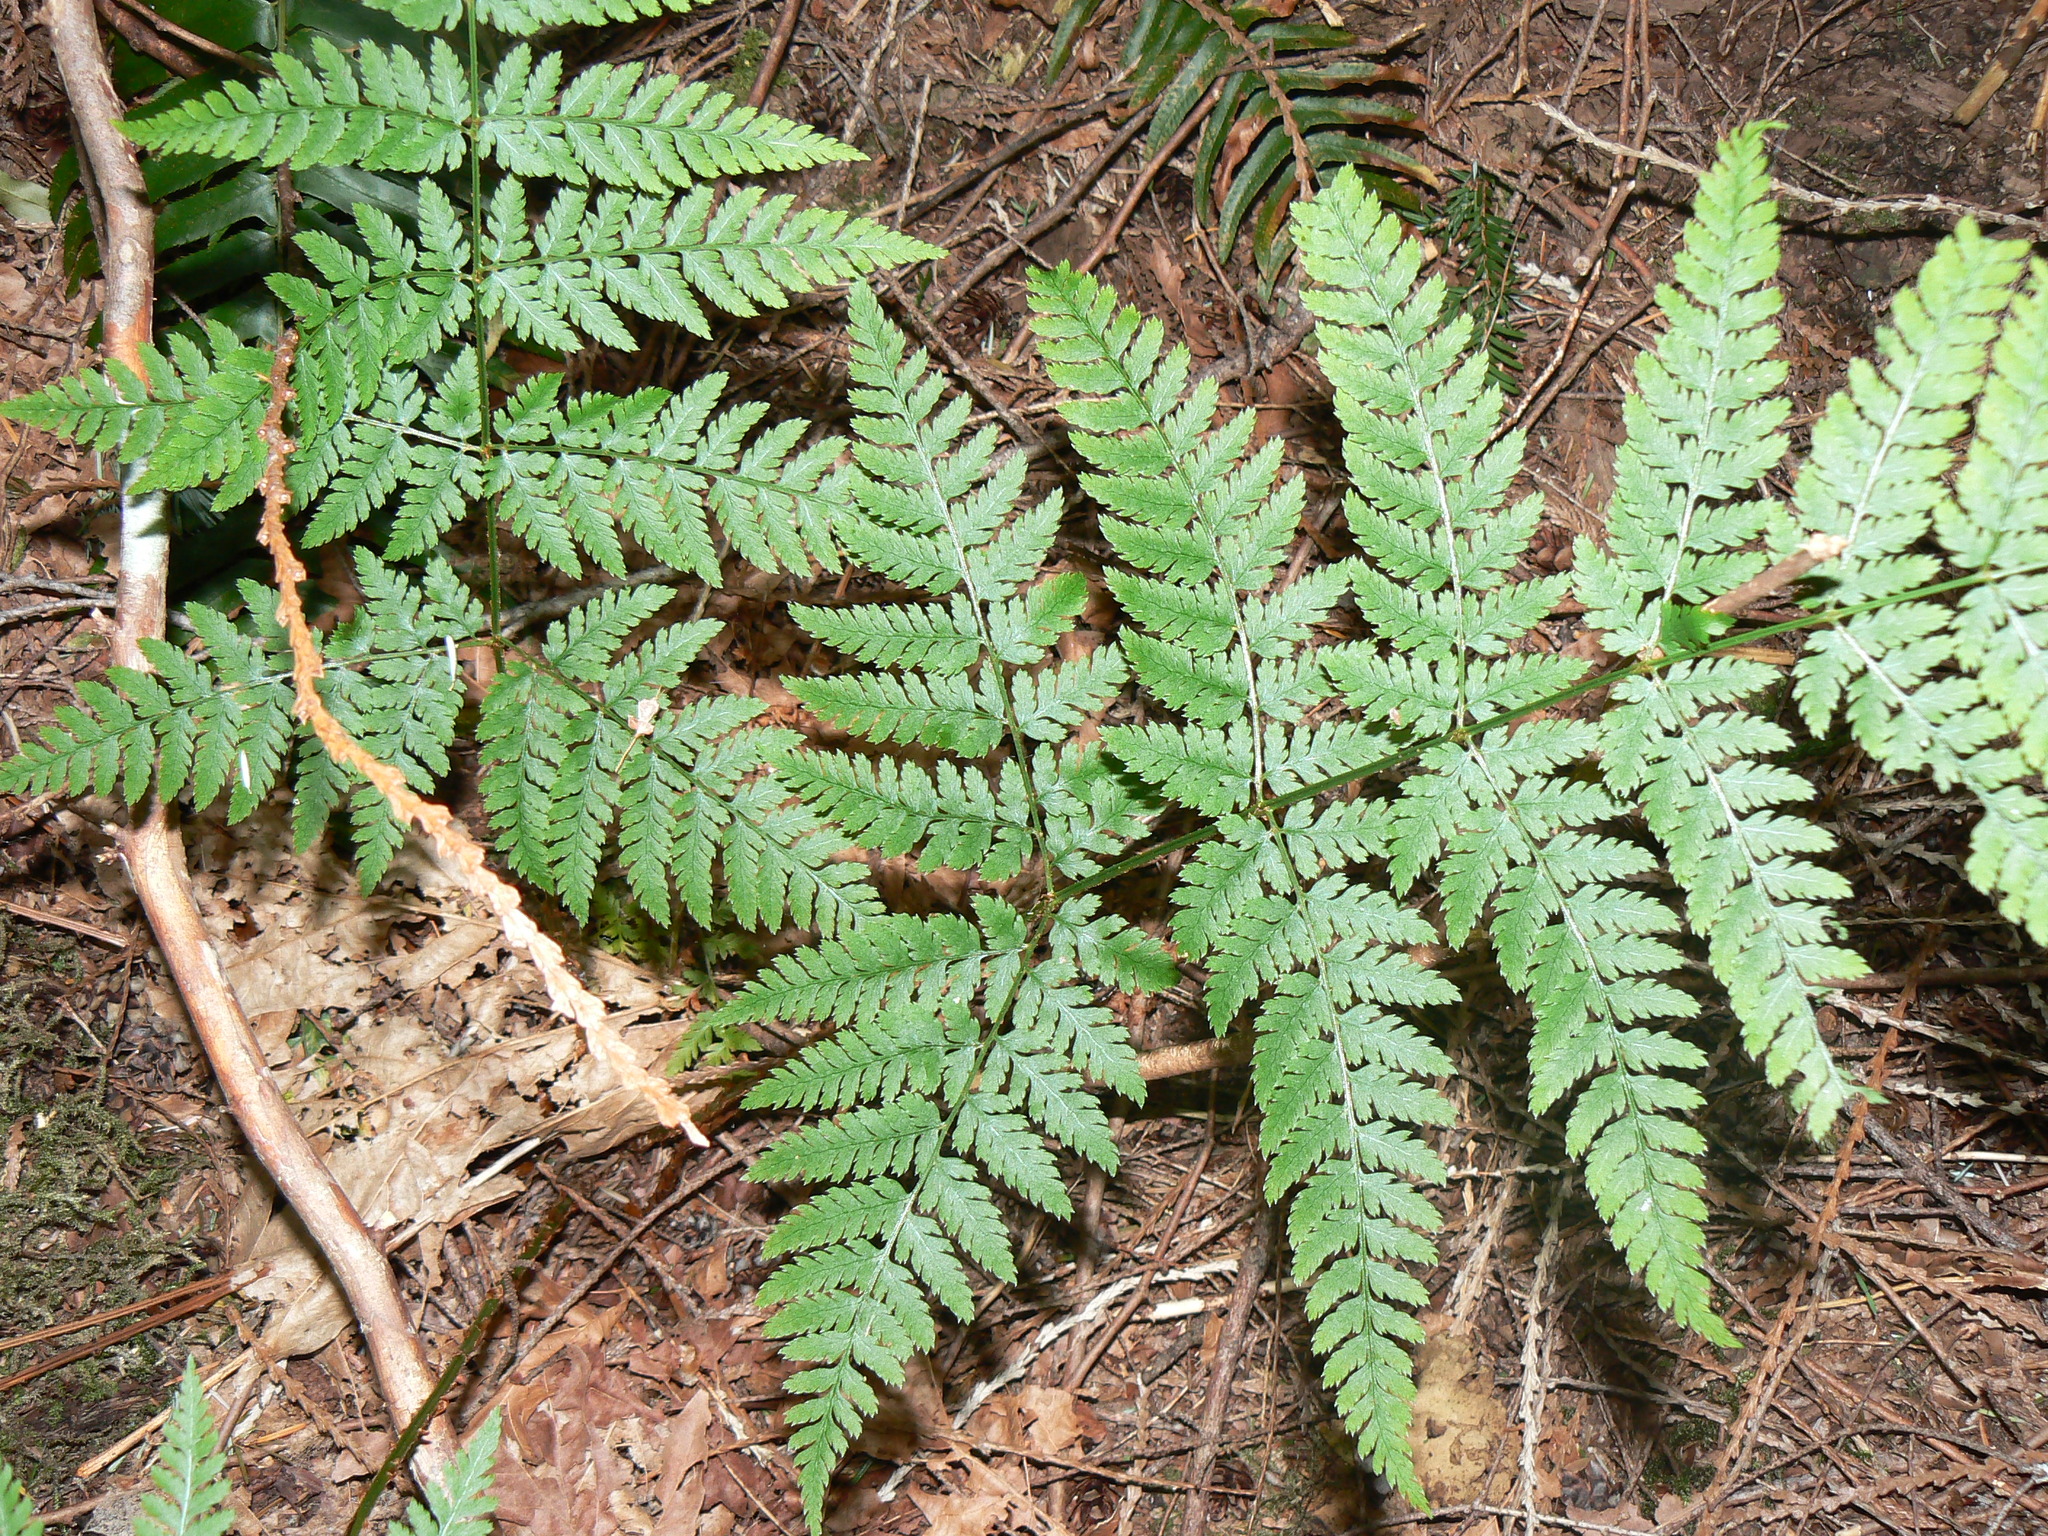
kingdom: Plantae
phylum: Tracheophyta
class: Polypodiopsida
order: Polypodiales
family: Dryopteridaceae
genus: Dryopteris
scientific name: Dryopteris expansa
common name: Northern buckler fern
